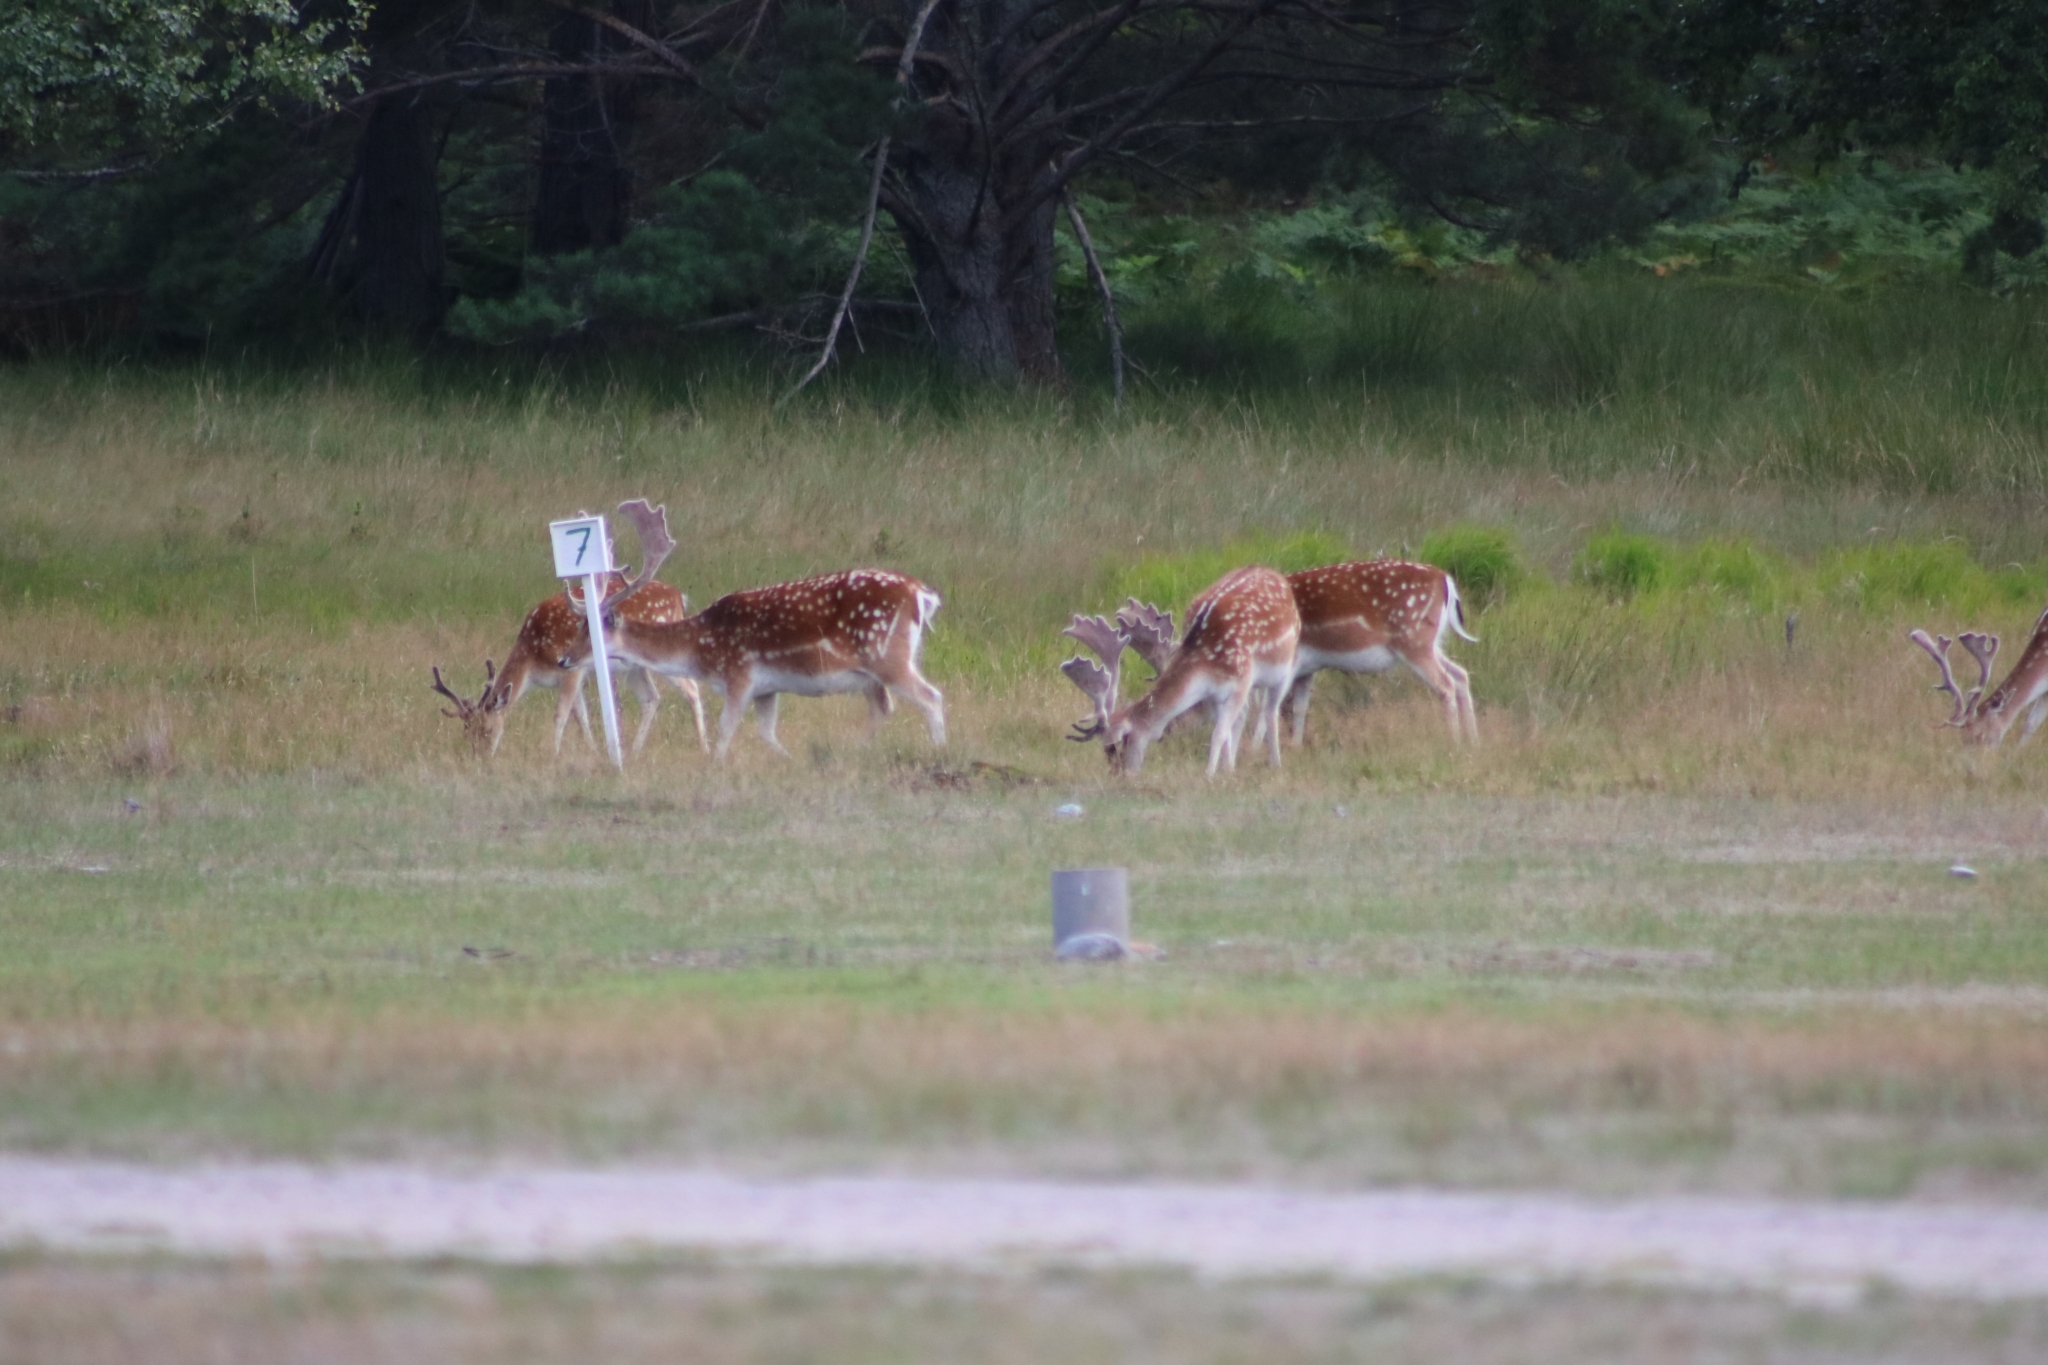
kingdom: Animalia
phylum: Chordata
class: Mammalia
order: Artiodactyla
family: Cervidae
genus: Dama
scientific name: Dama dama
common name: Fallow deer
